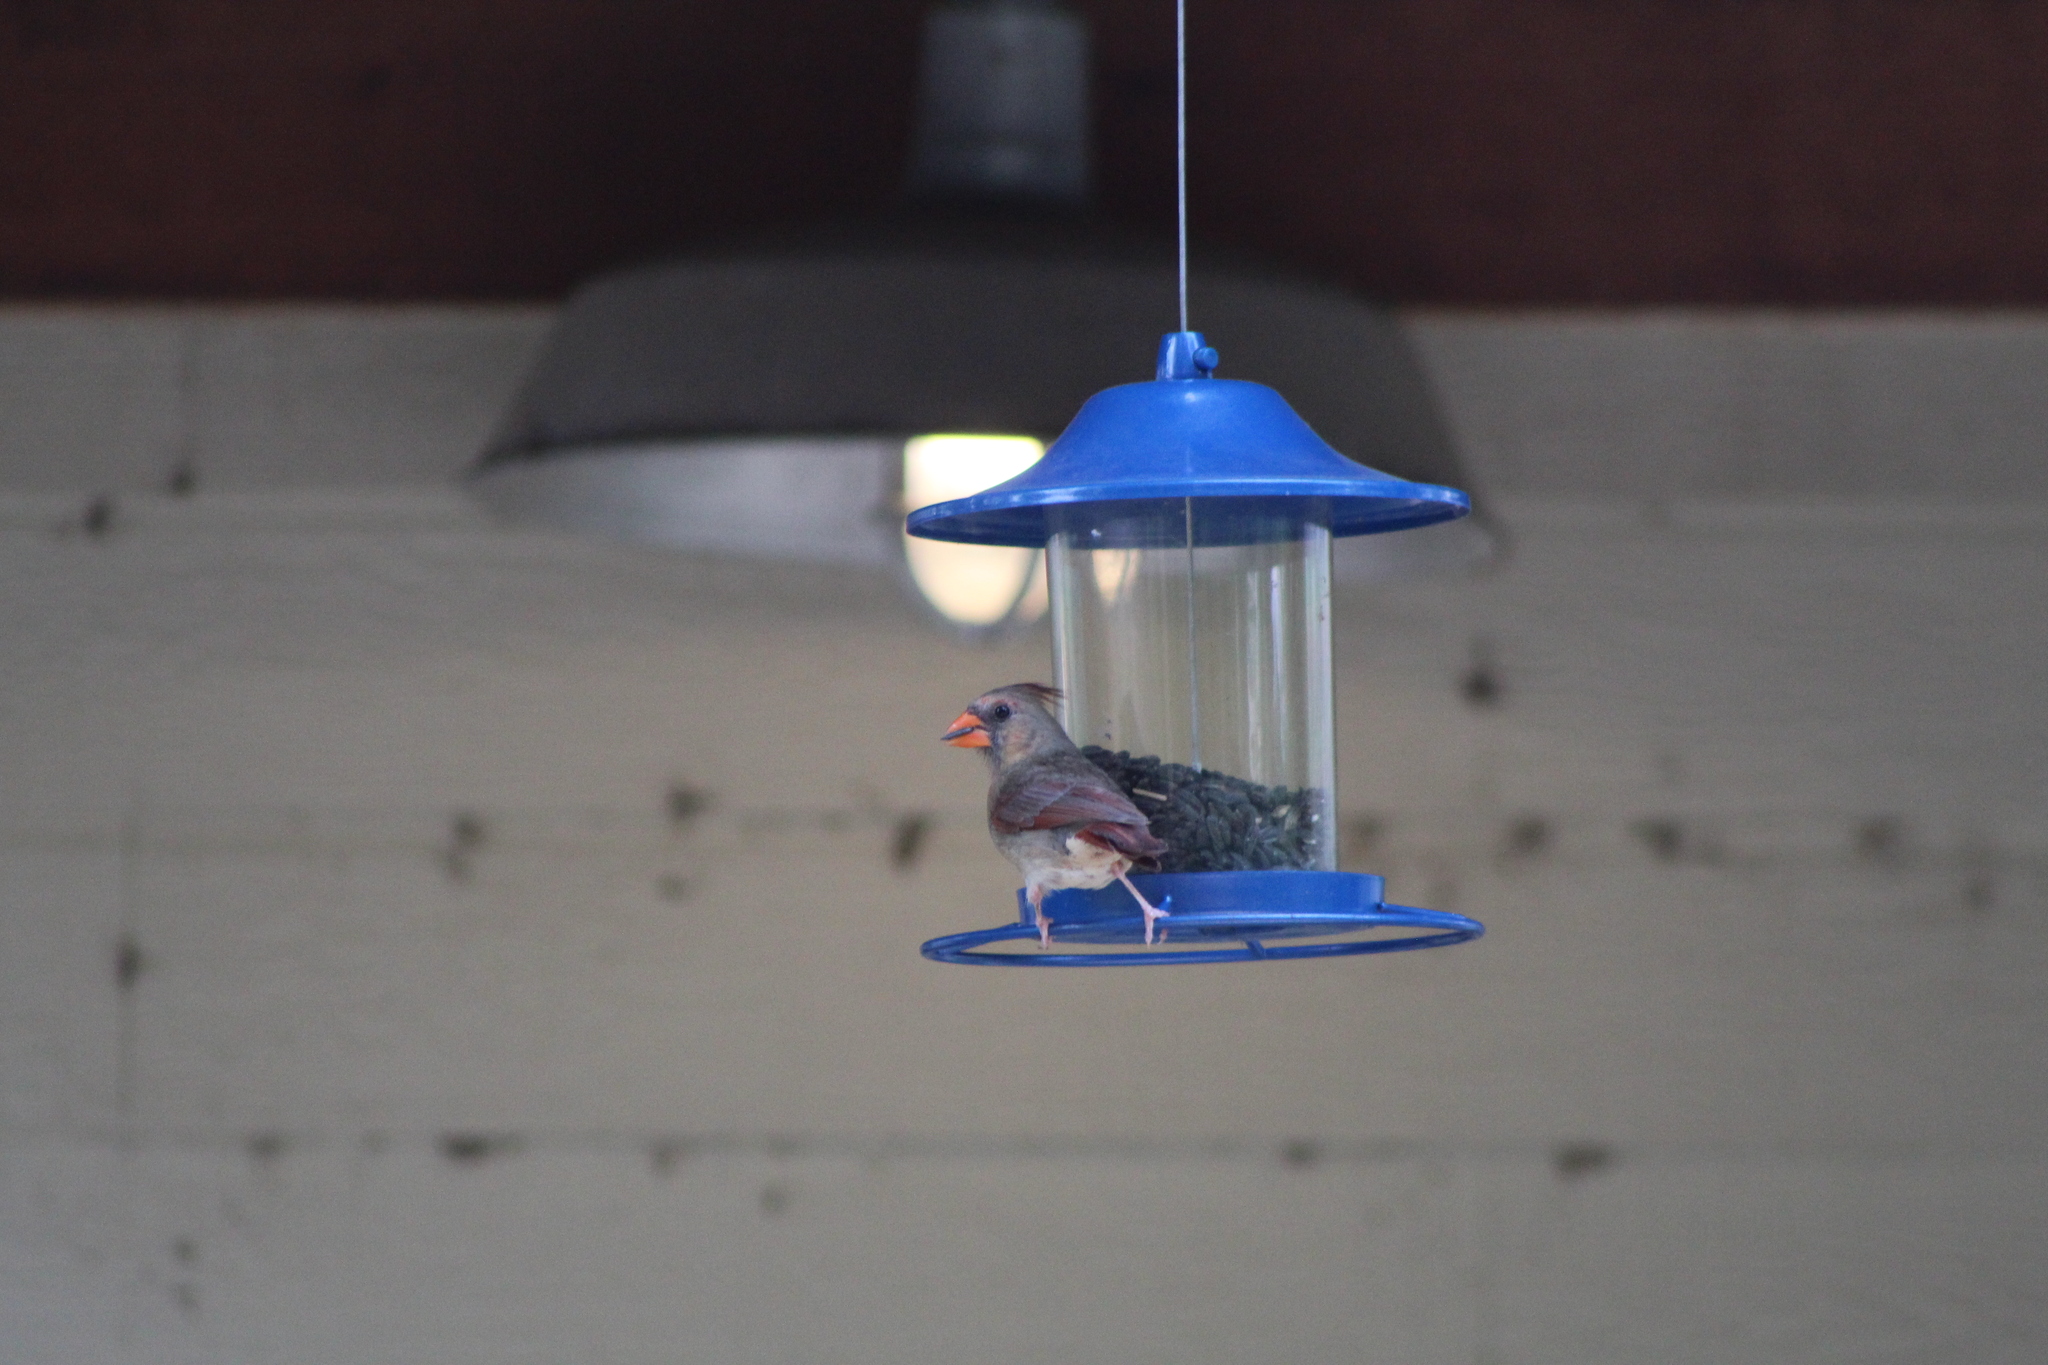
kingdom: Animalia
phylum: Chordata
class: Aves
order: Passeriformes
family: Cardinalidae
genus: Cardinalis
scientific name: Cardinalis cardinalis
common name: Northern cardinal
